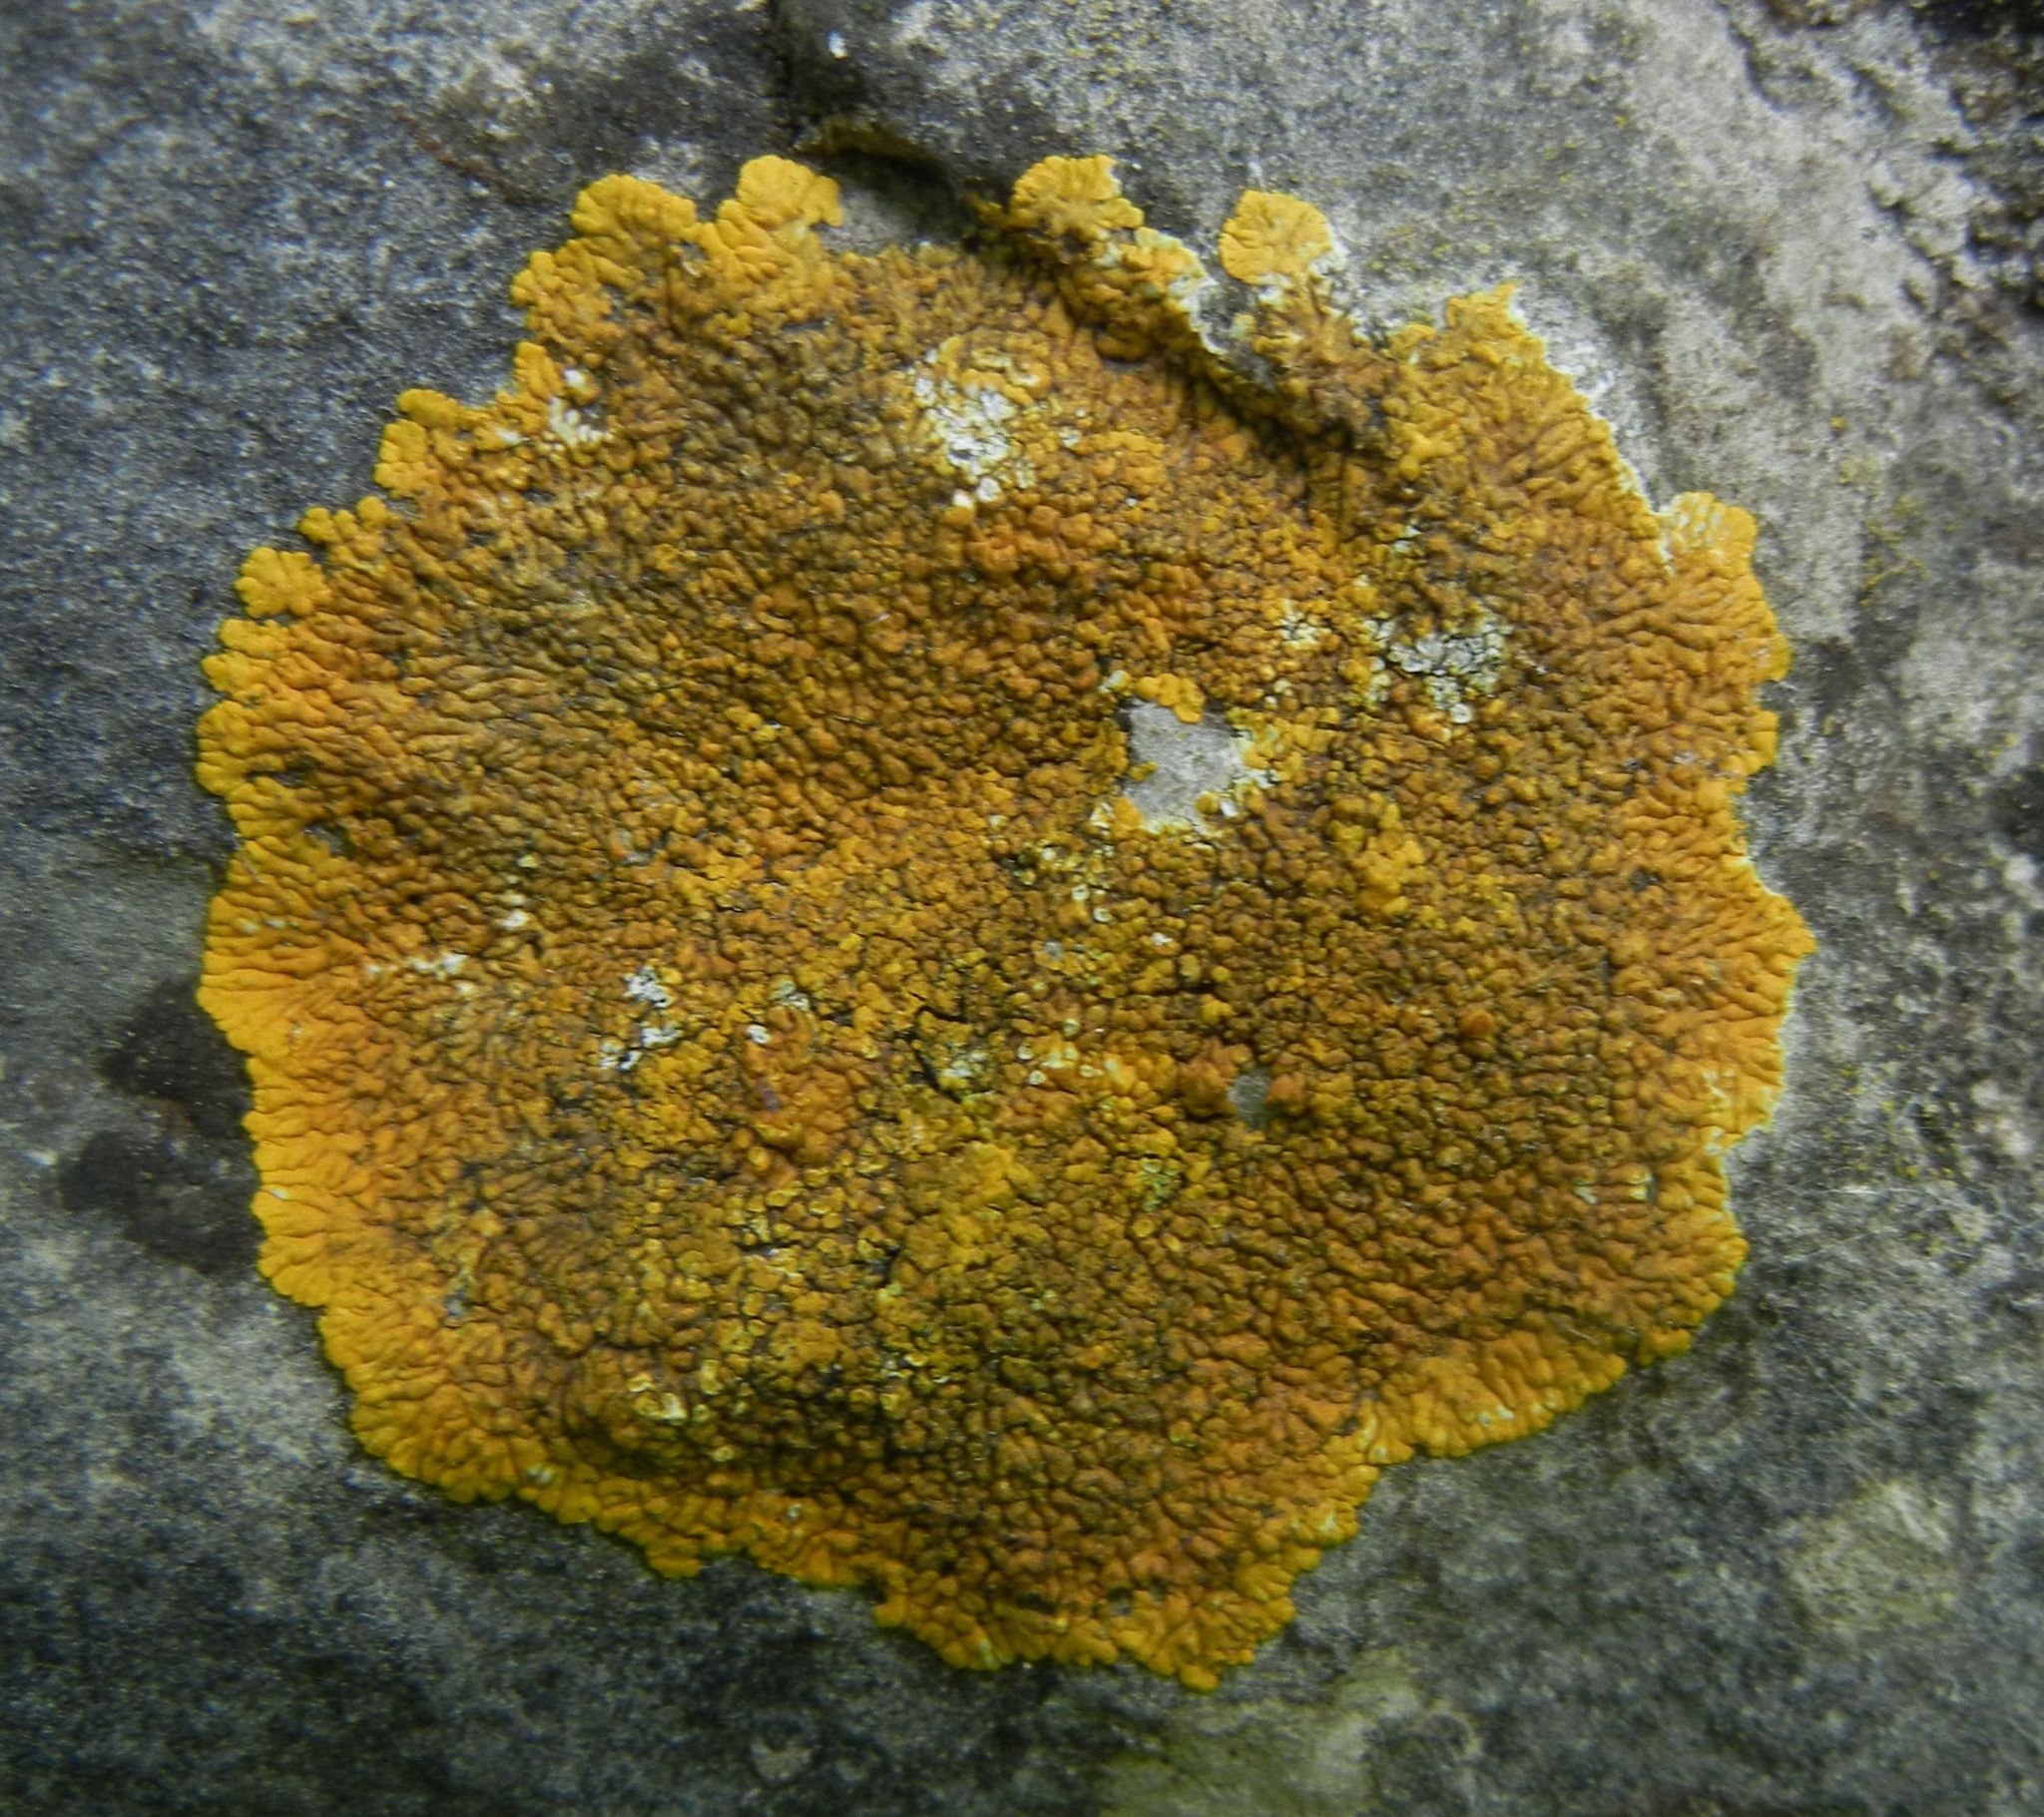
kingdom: Fungi
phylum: Ascomycota
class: Lecanoromycetes
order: Teloschistales
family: Teloschistaceae
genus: Variospora
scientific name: Variospora flavescens
